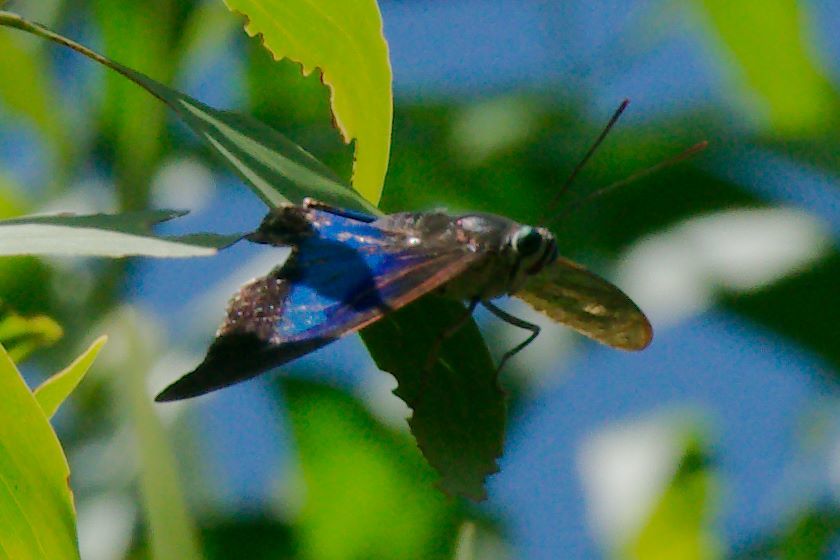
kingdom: Animalia
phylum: Arthropoda
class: Insecta
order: Lepidoptera
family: Nymphalidae
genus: Prepona
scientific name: Prepona laertes
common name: Butterfly
